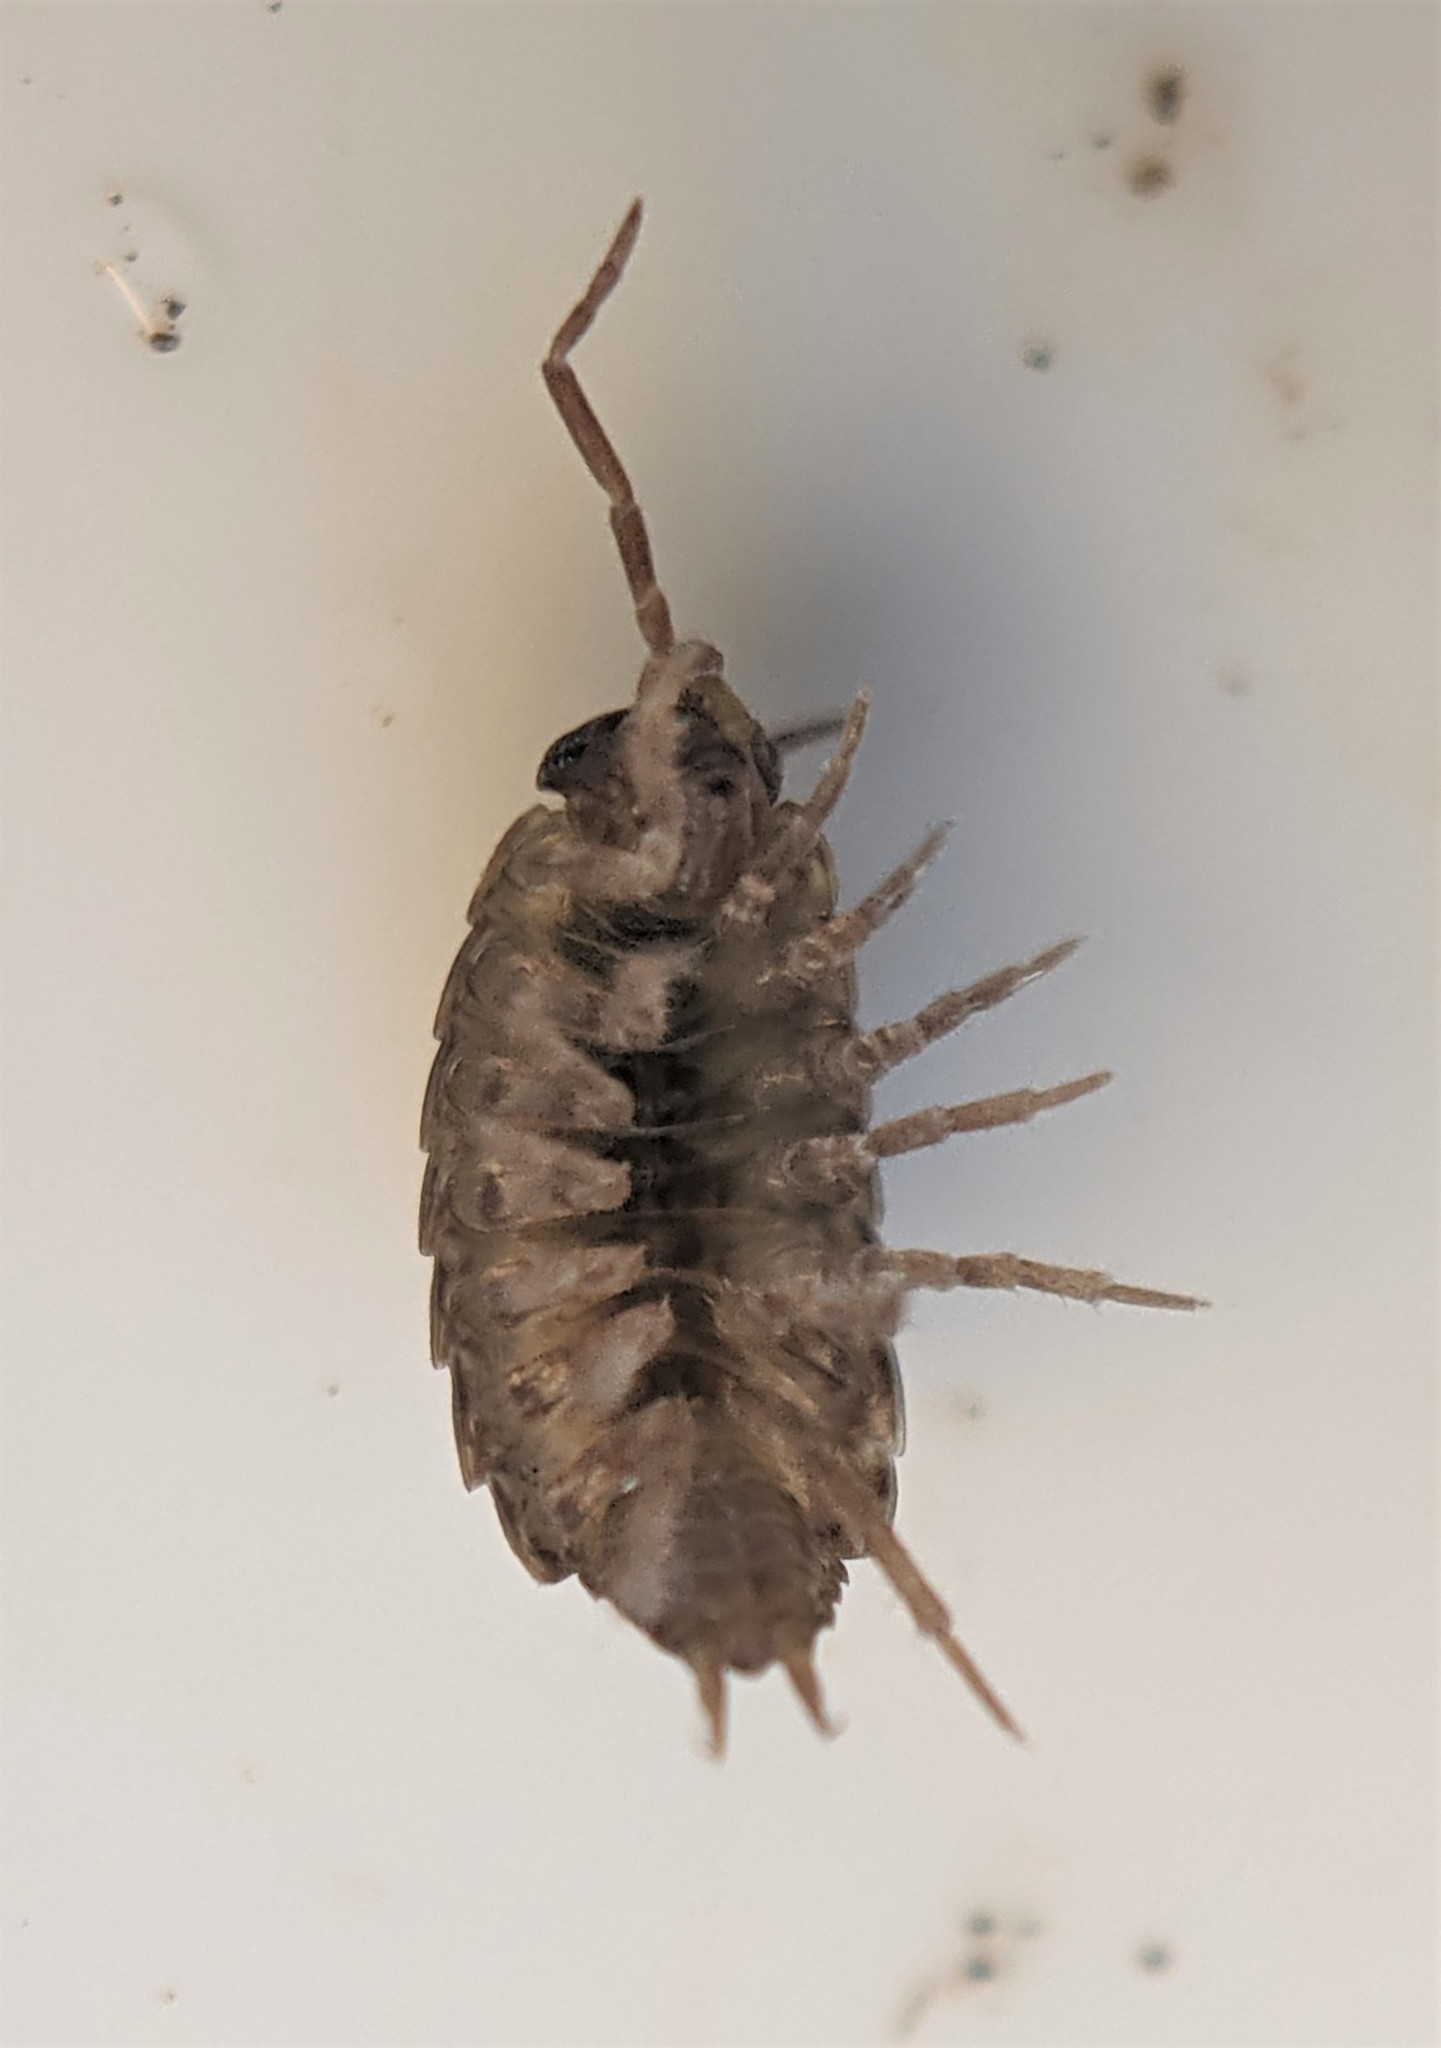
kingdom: Animalia
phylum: Arthropoda
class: Malacostraca
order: Isopoda
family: Philosciidae
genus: Philoscia
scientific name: Philoscia muscorum
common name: Common striped woodlouse
